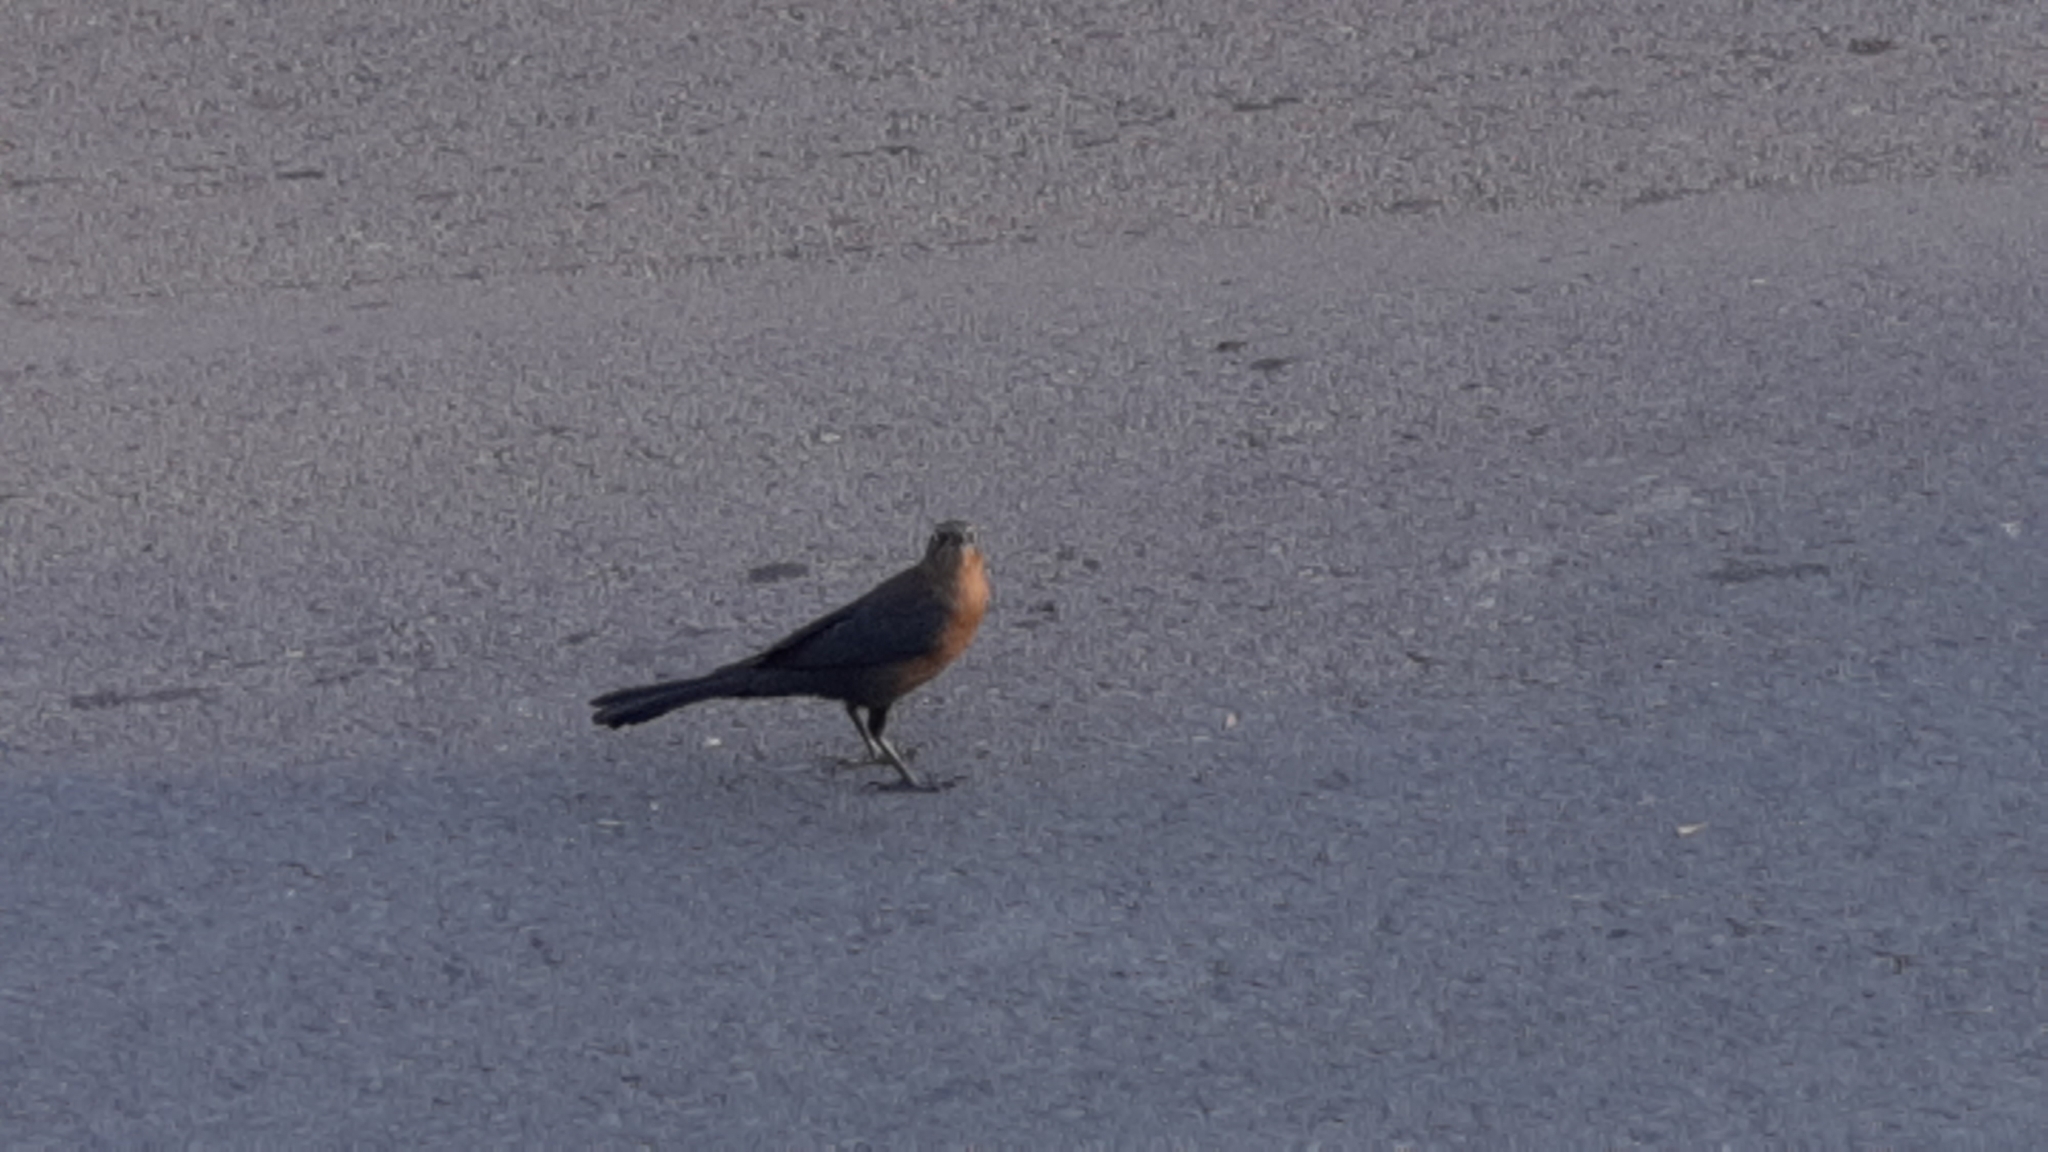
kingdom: Animalia
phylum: Chordata
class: Aves
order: Passeriformes
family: Icteridae
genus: Quiscalus
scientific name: Quiscalus mexicanus
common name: Great-tailed grackle
